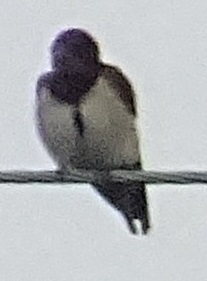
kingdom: Animalia
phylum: Chordata
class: Aves
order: Passeriformes
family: Hirundinidae
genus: Hirundo
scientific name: Hirundo rustica
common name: Barn swallow
